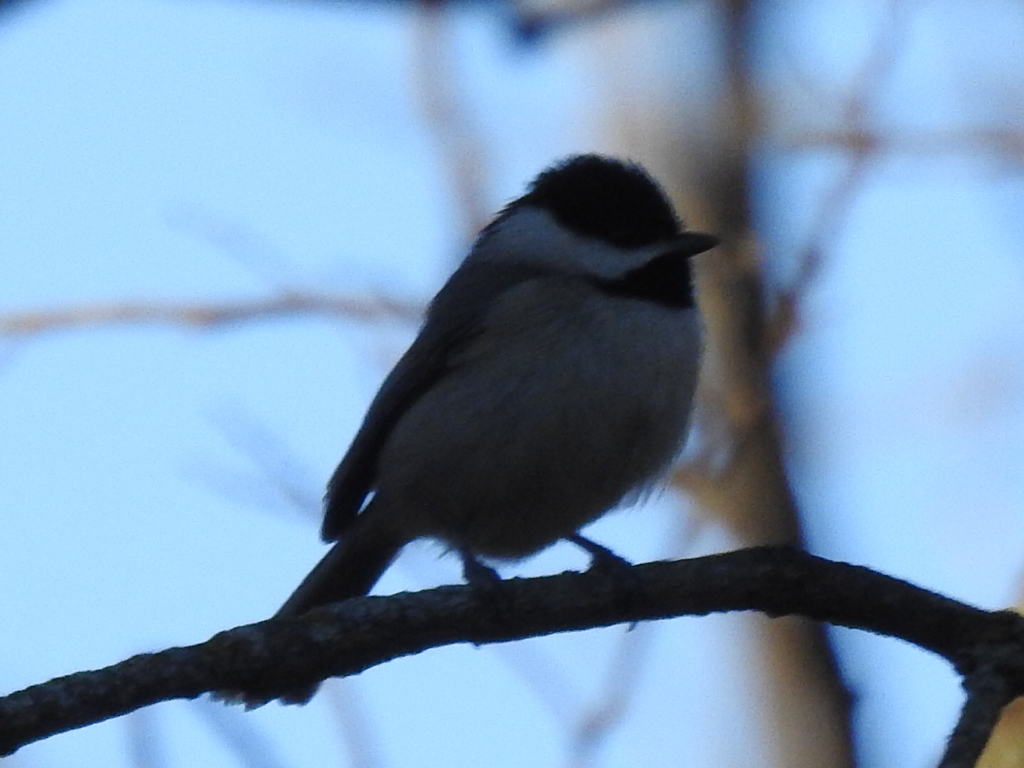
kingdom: Animalia
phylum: Chordata
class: Aves
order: Passeriformes
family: Paridae
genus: Poecile
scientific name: Poecile carolinensis
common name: Carolina chickadee
